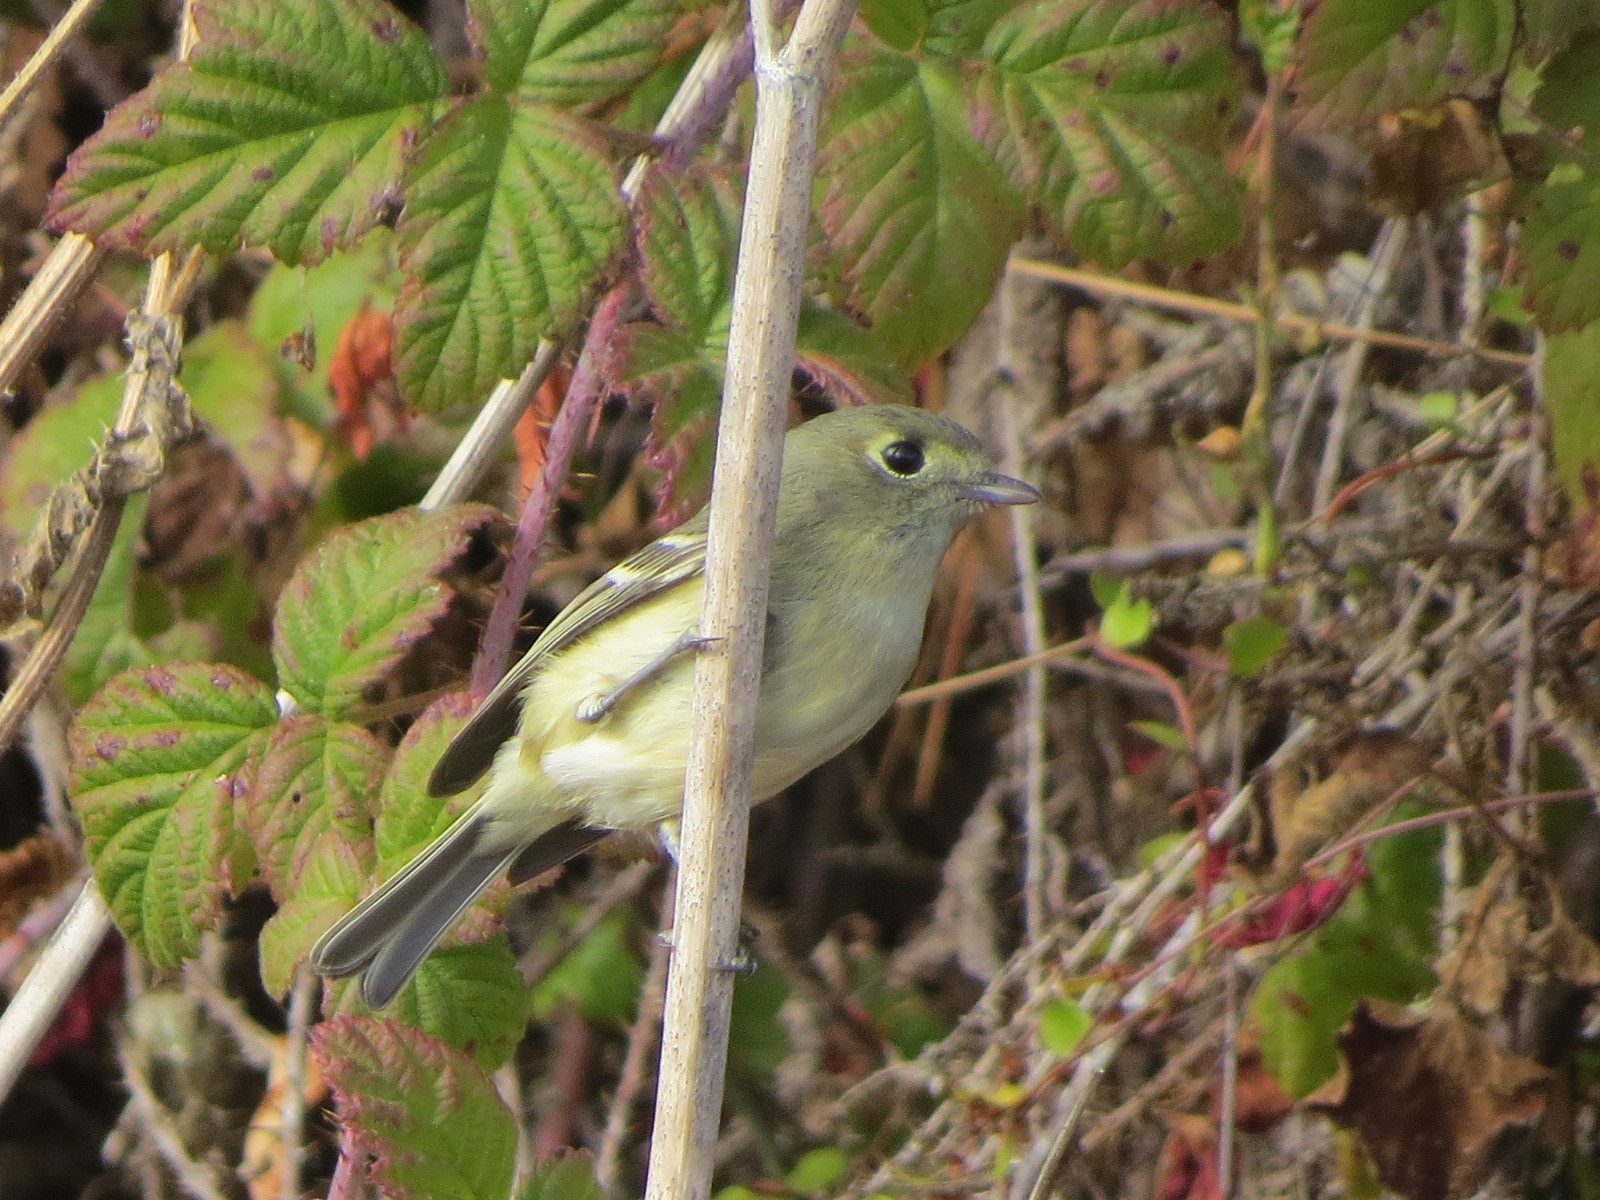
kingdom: Animalia
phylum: Chordata
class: Aves
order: Passeriformes
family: Vireonidae
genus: Vireo
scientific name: Vireo huttoni
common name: Hutton's vireo
